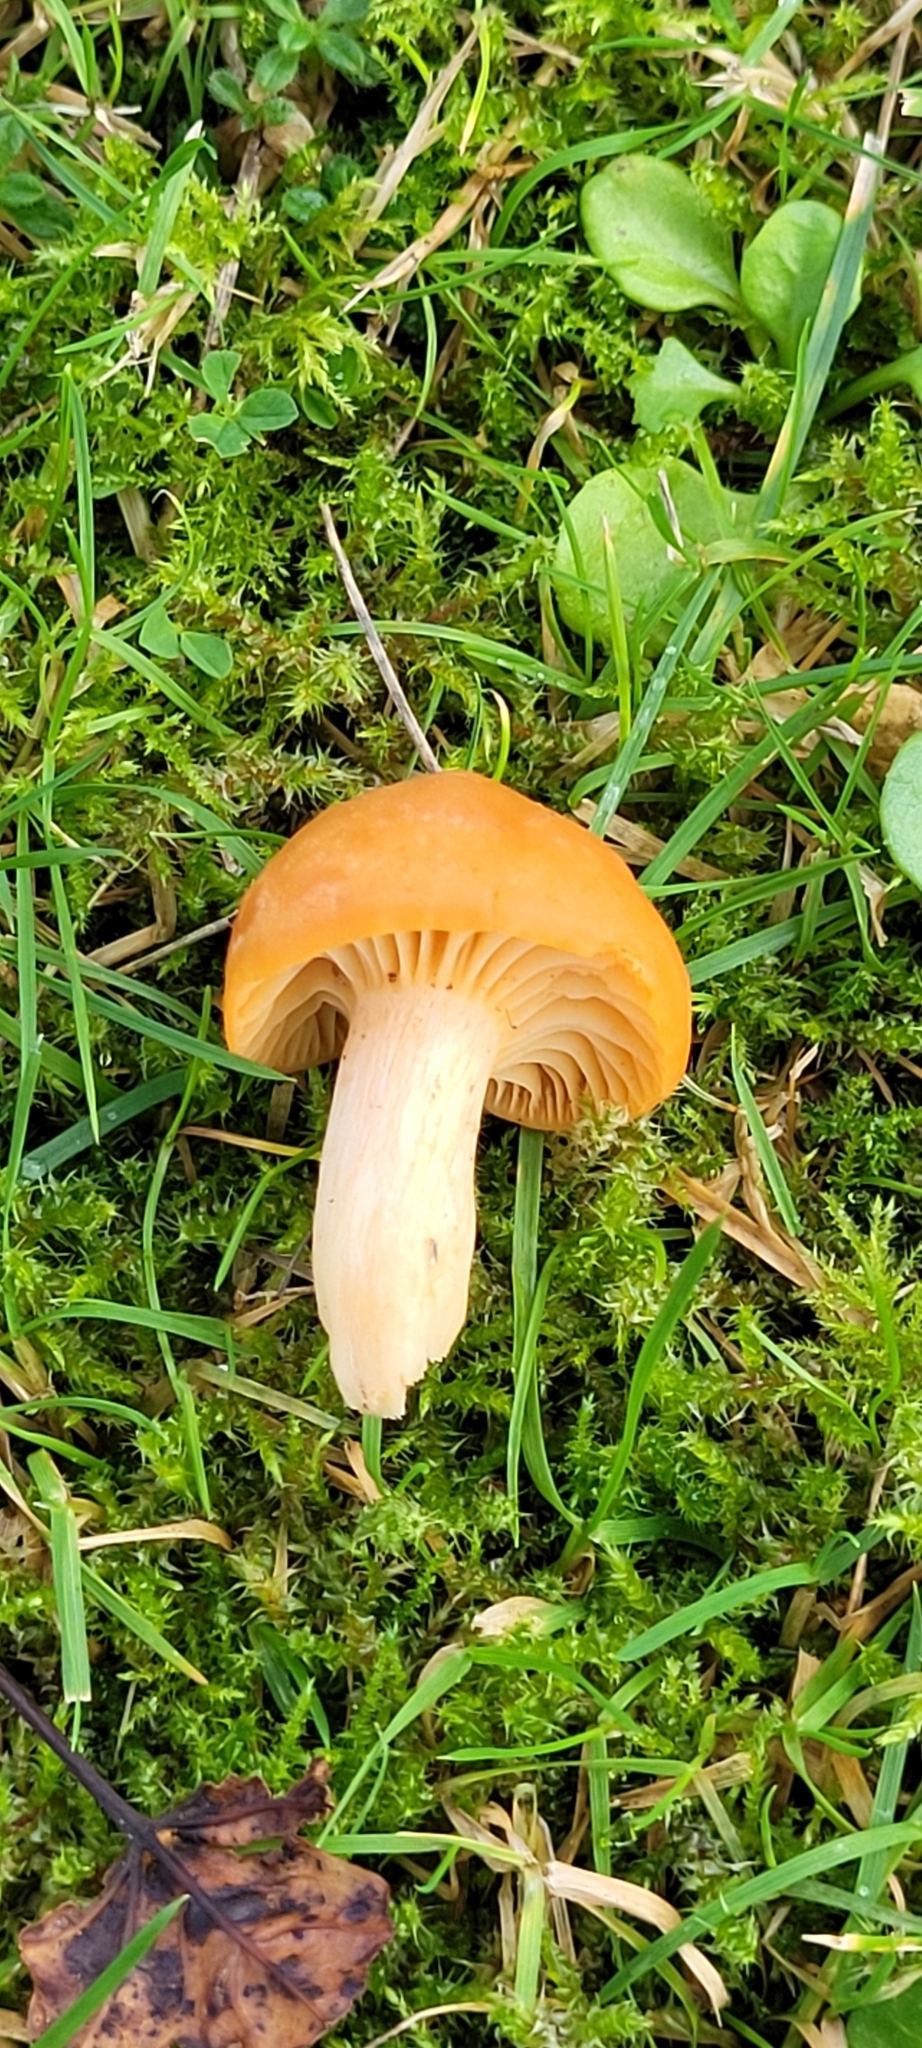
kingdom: Fungi
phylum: Basidiomycota
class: Agaricomycetes
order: Agaricales
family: Hygrophoraceae
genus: Cuphophyllus
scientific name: Cuphophyllus pratensis
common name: Meadow waxcap
